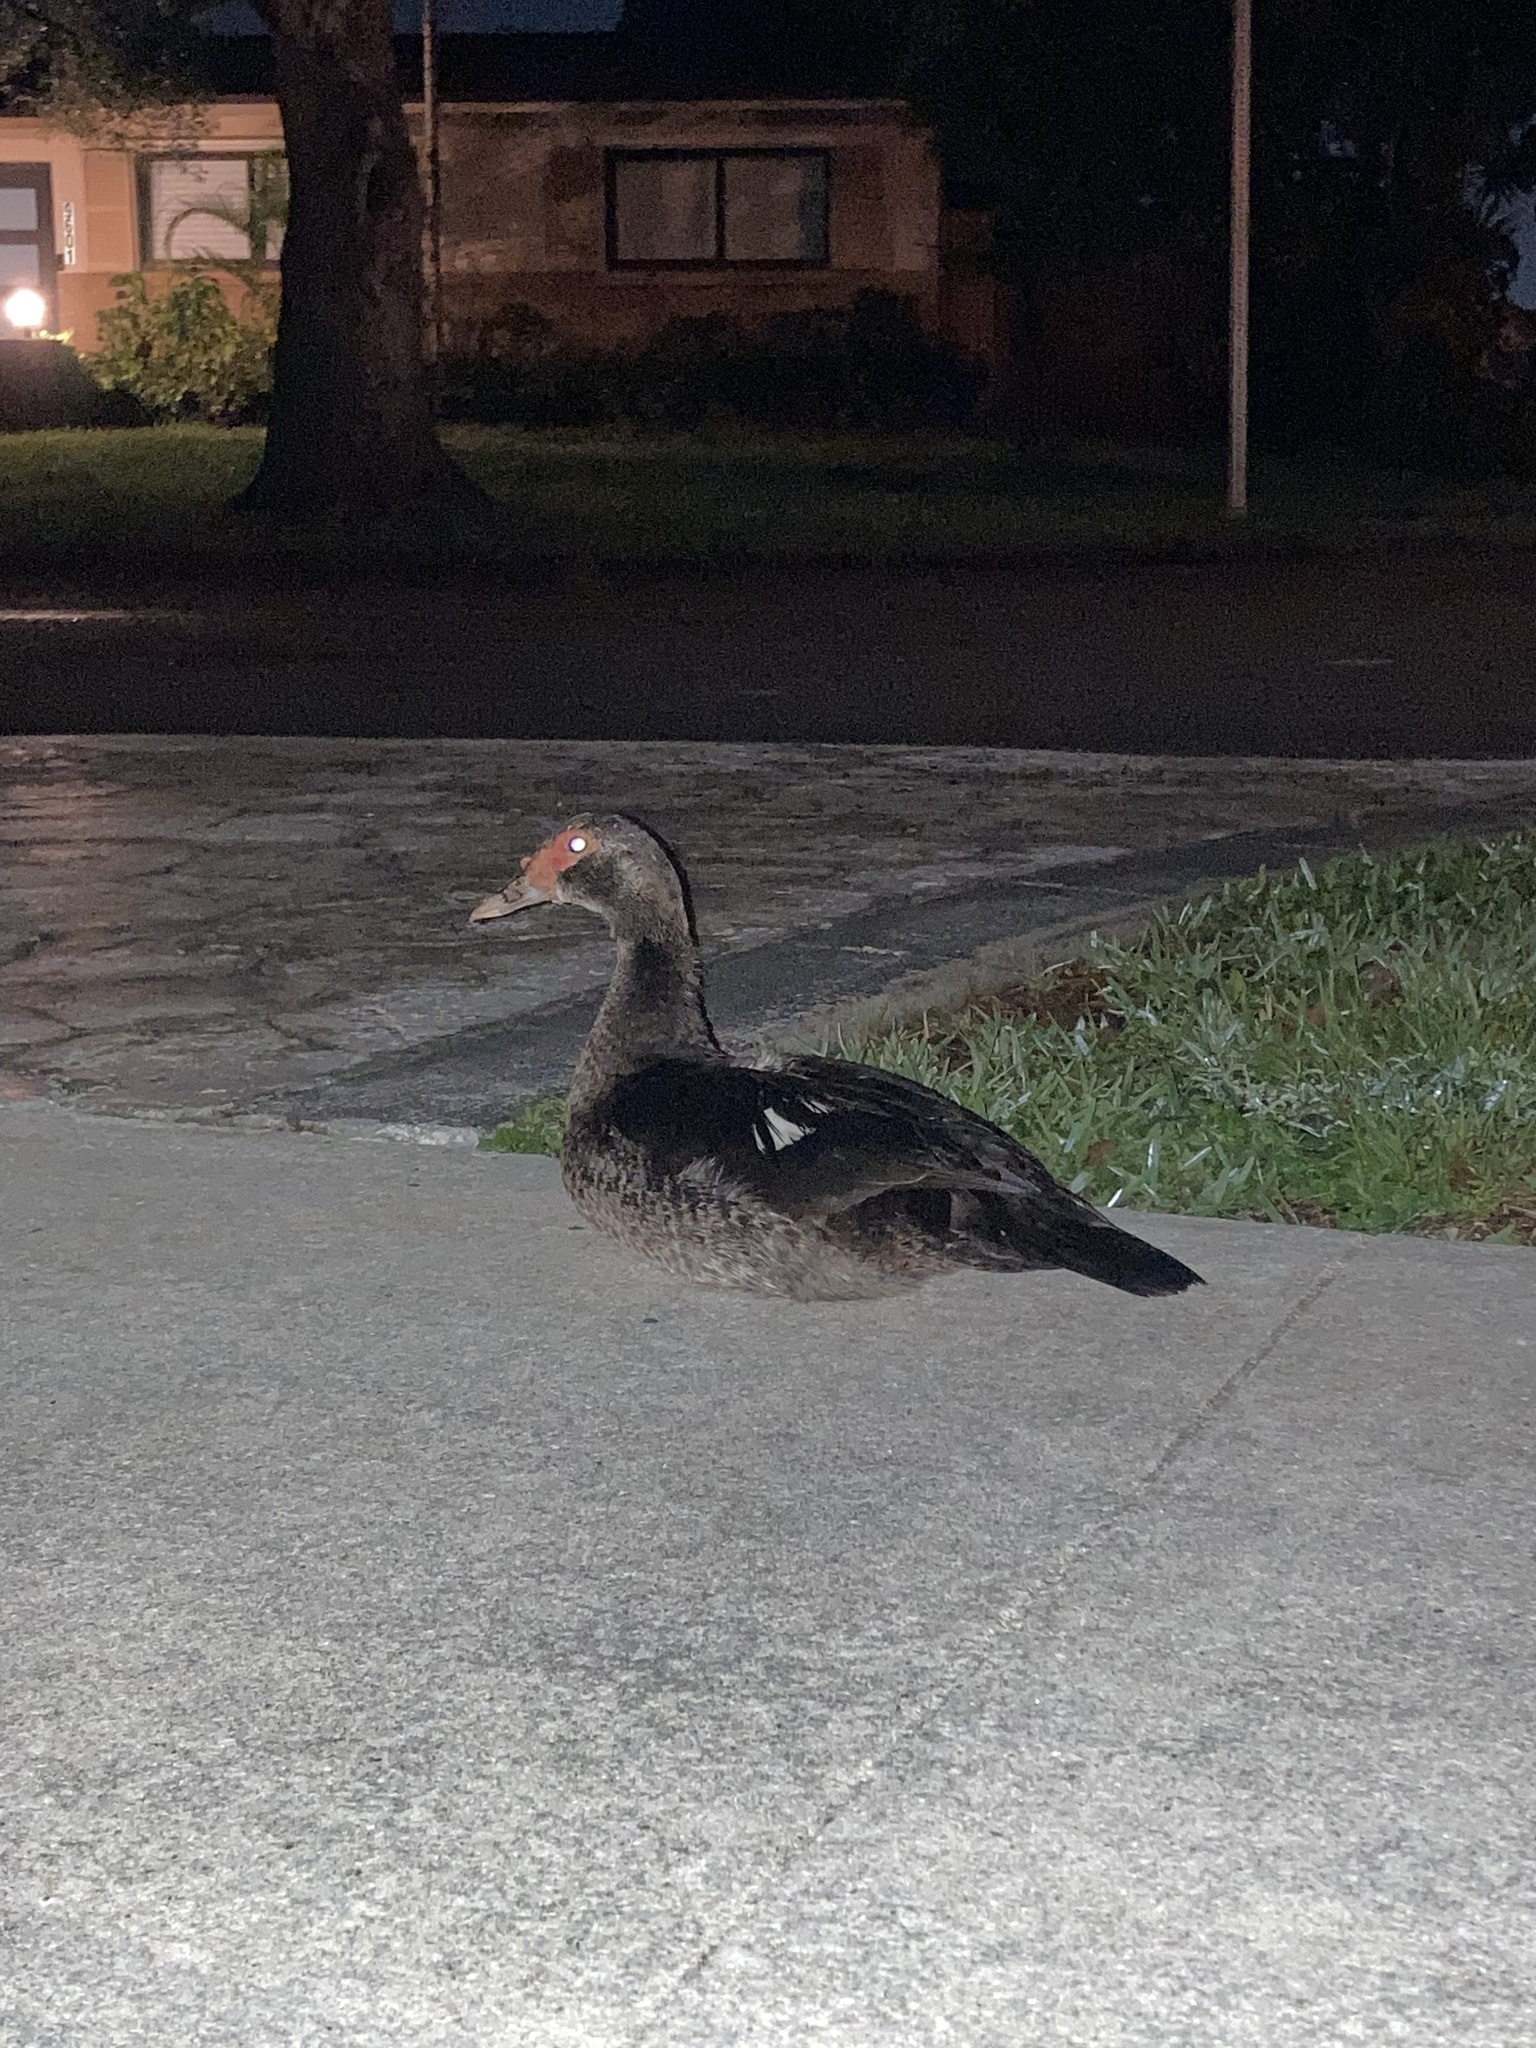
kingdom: Animalia
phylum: Chordata
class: Aves
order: Anseriformes
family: Anatidae
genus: Cairina
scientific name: Cairina moschata
